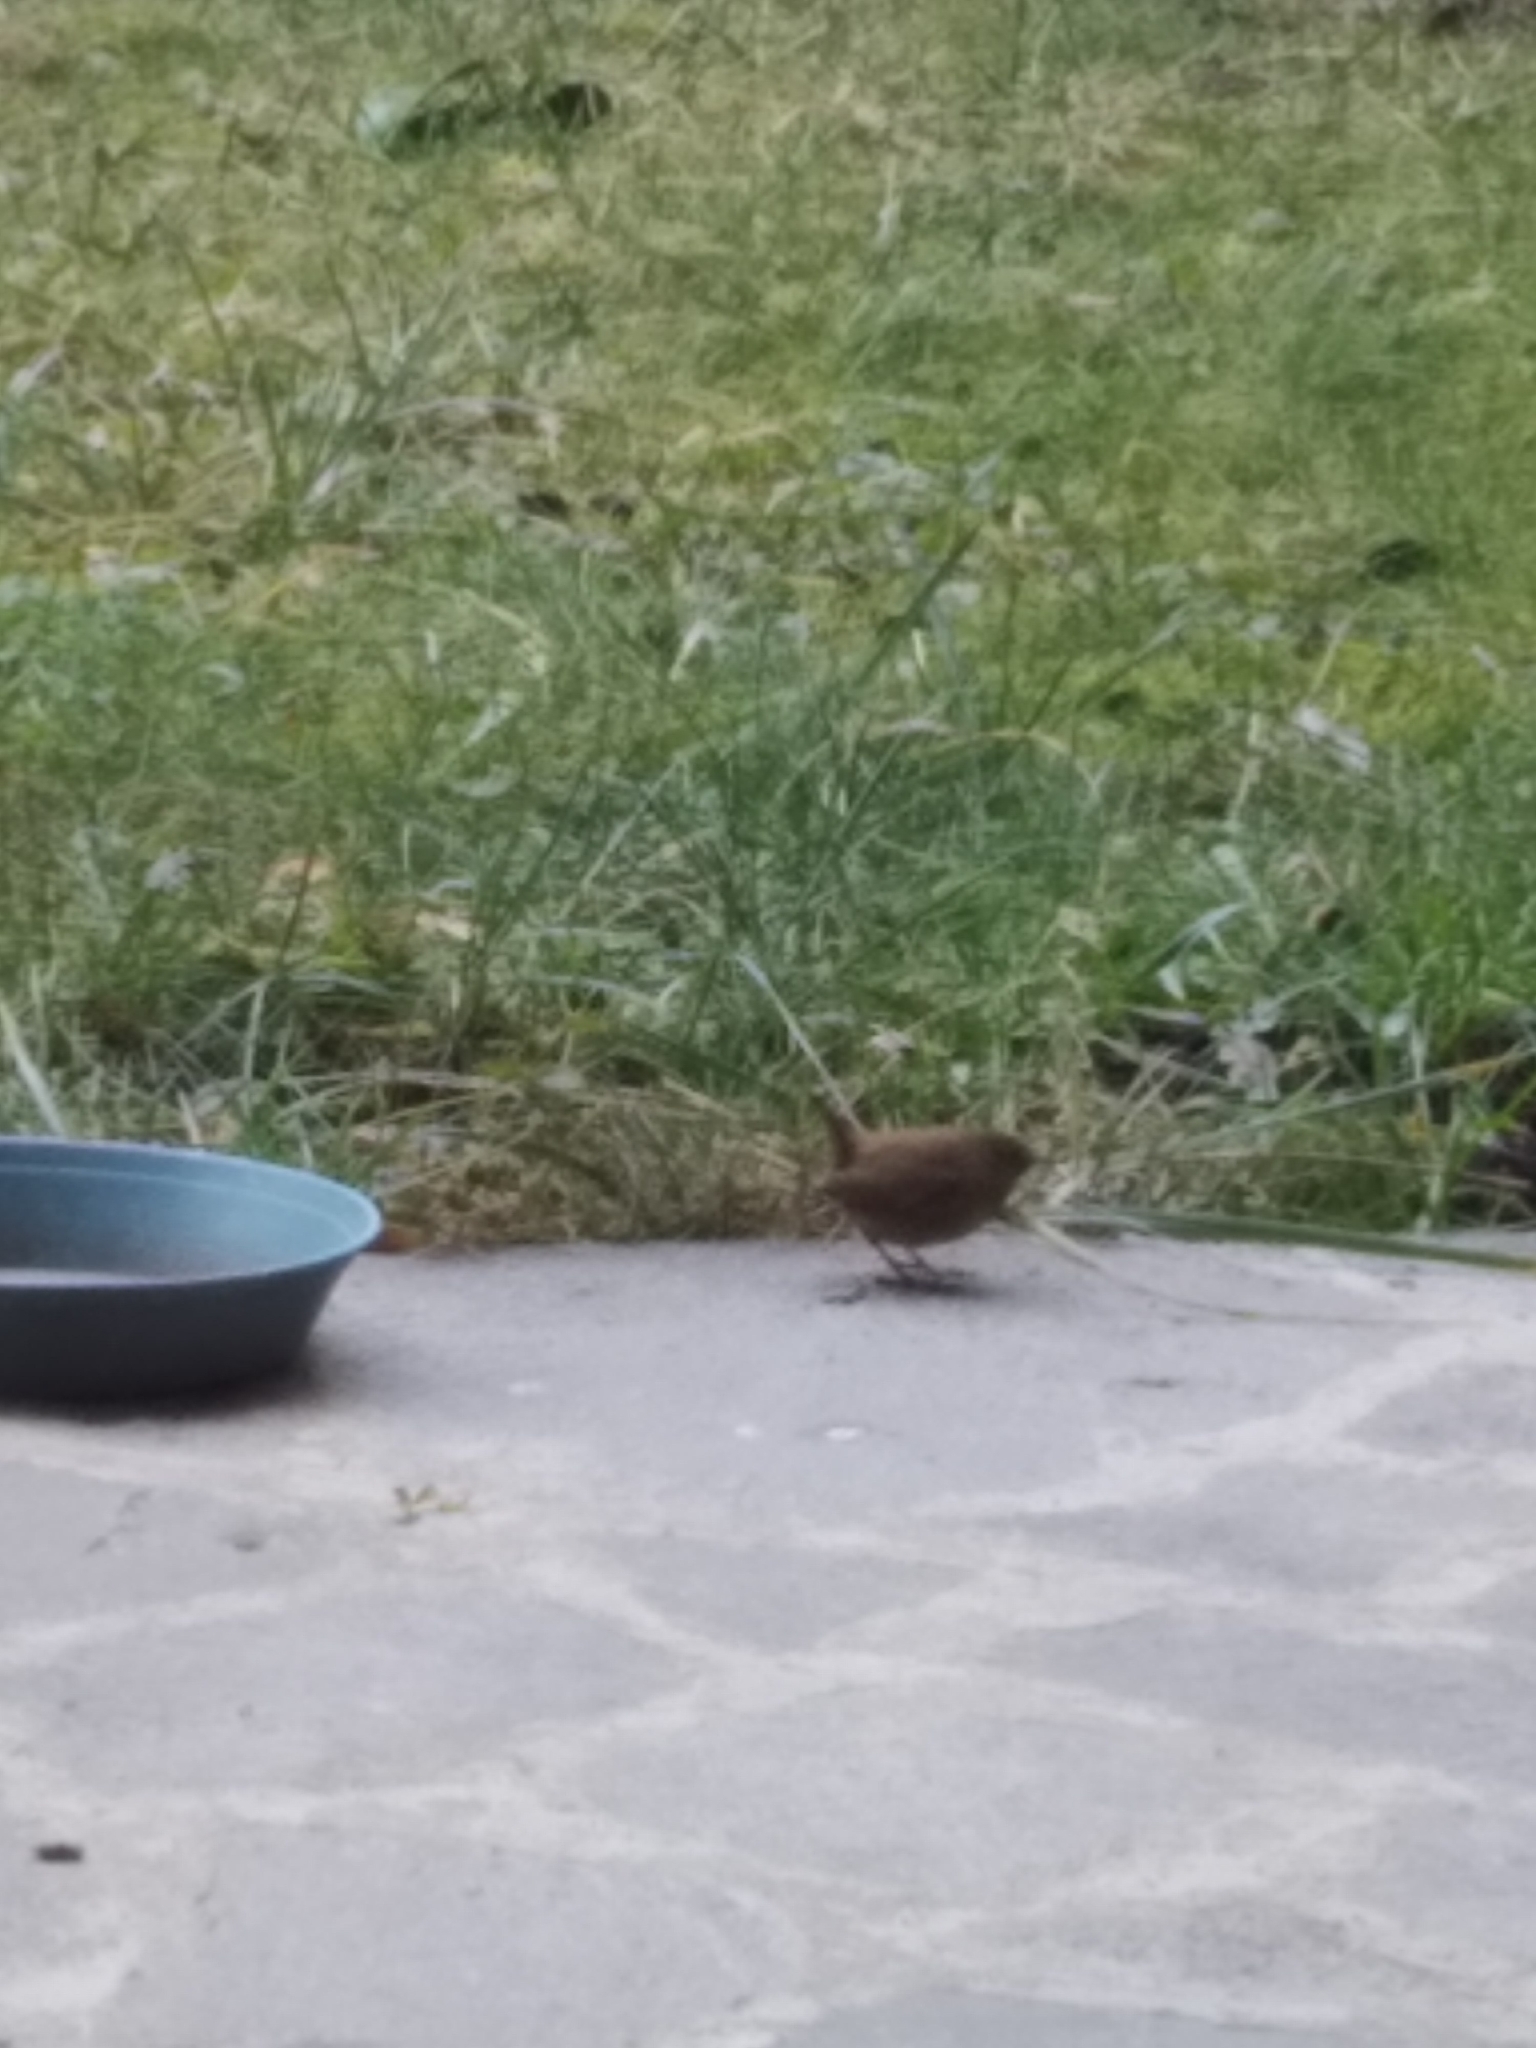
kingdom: Animalia
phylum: Chordata
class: Aves
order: Passeriformes
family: Troglodytidae
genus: Troglodytes
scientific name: Troglodytes troglodytes
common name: Eurasian wren
